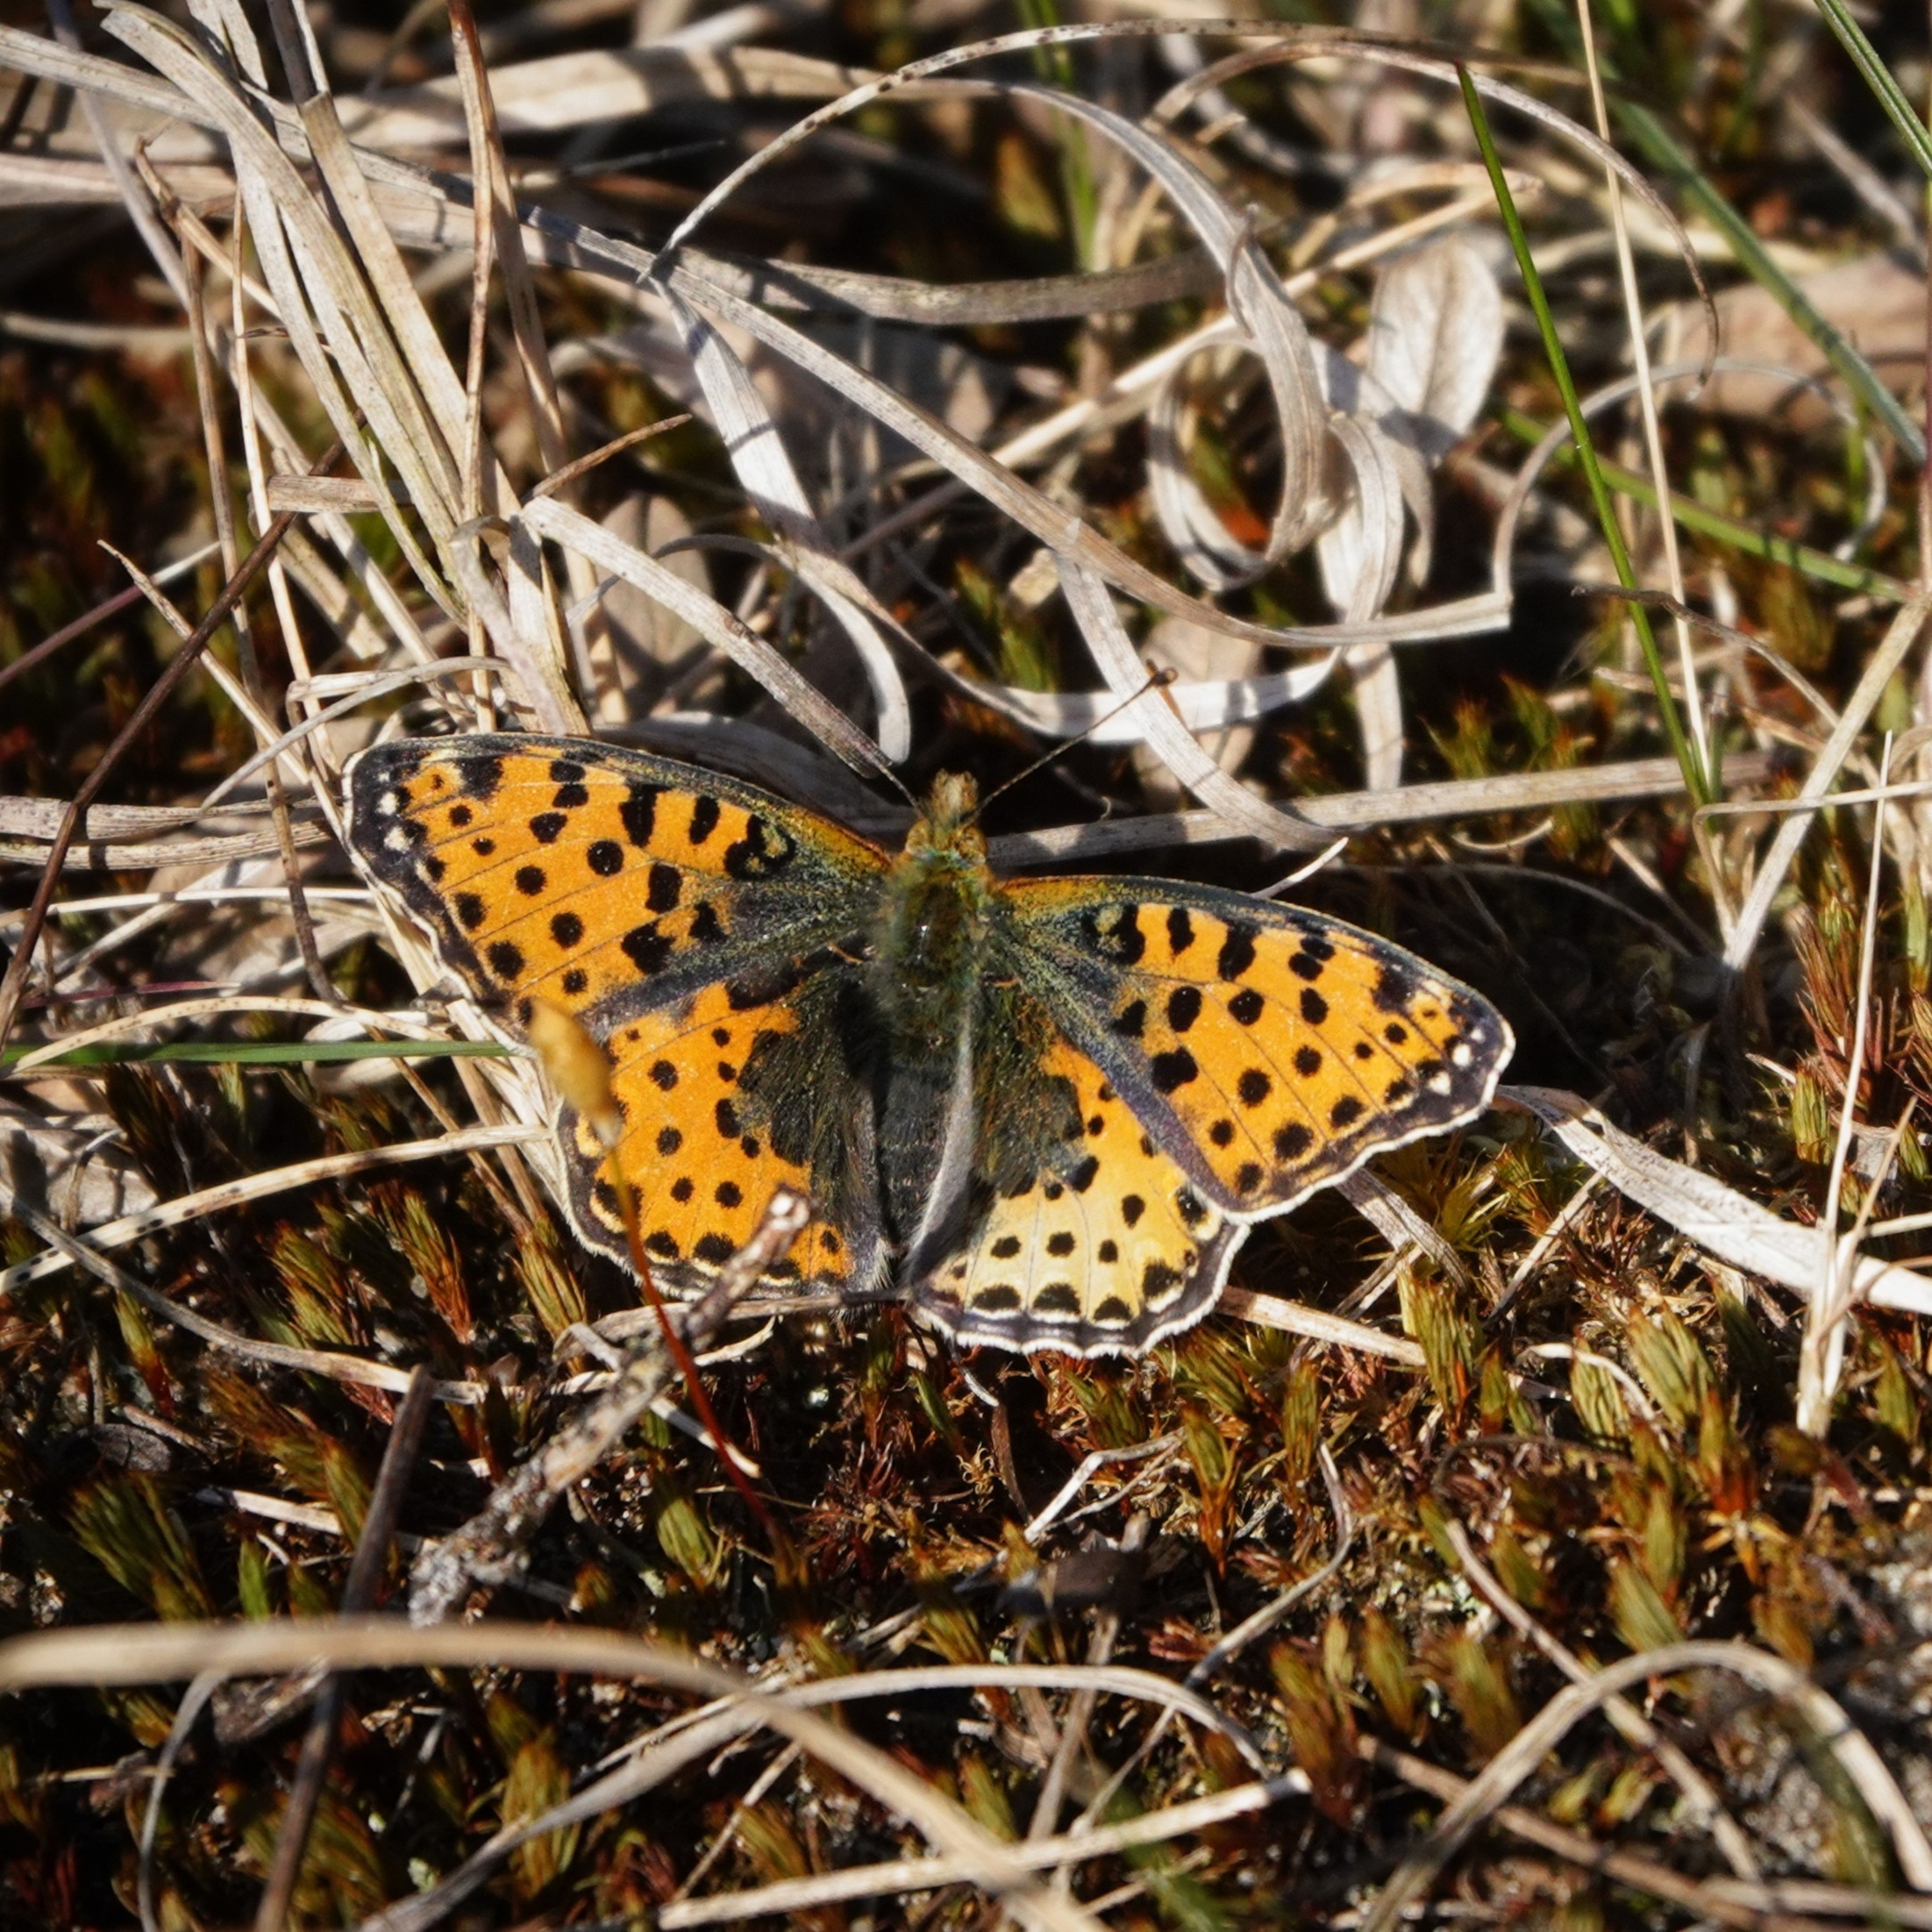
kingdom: Animalia
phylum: Arthropoda
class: Insecta
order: Lepidoptera
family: Nymphalidae
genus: Issoria
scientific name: Issoria lathonia
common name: Queen of spain fritillary
